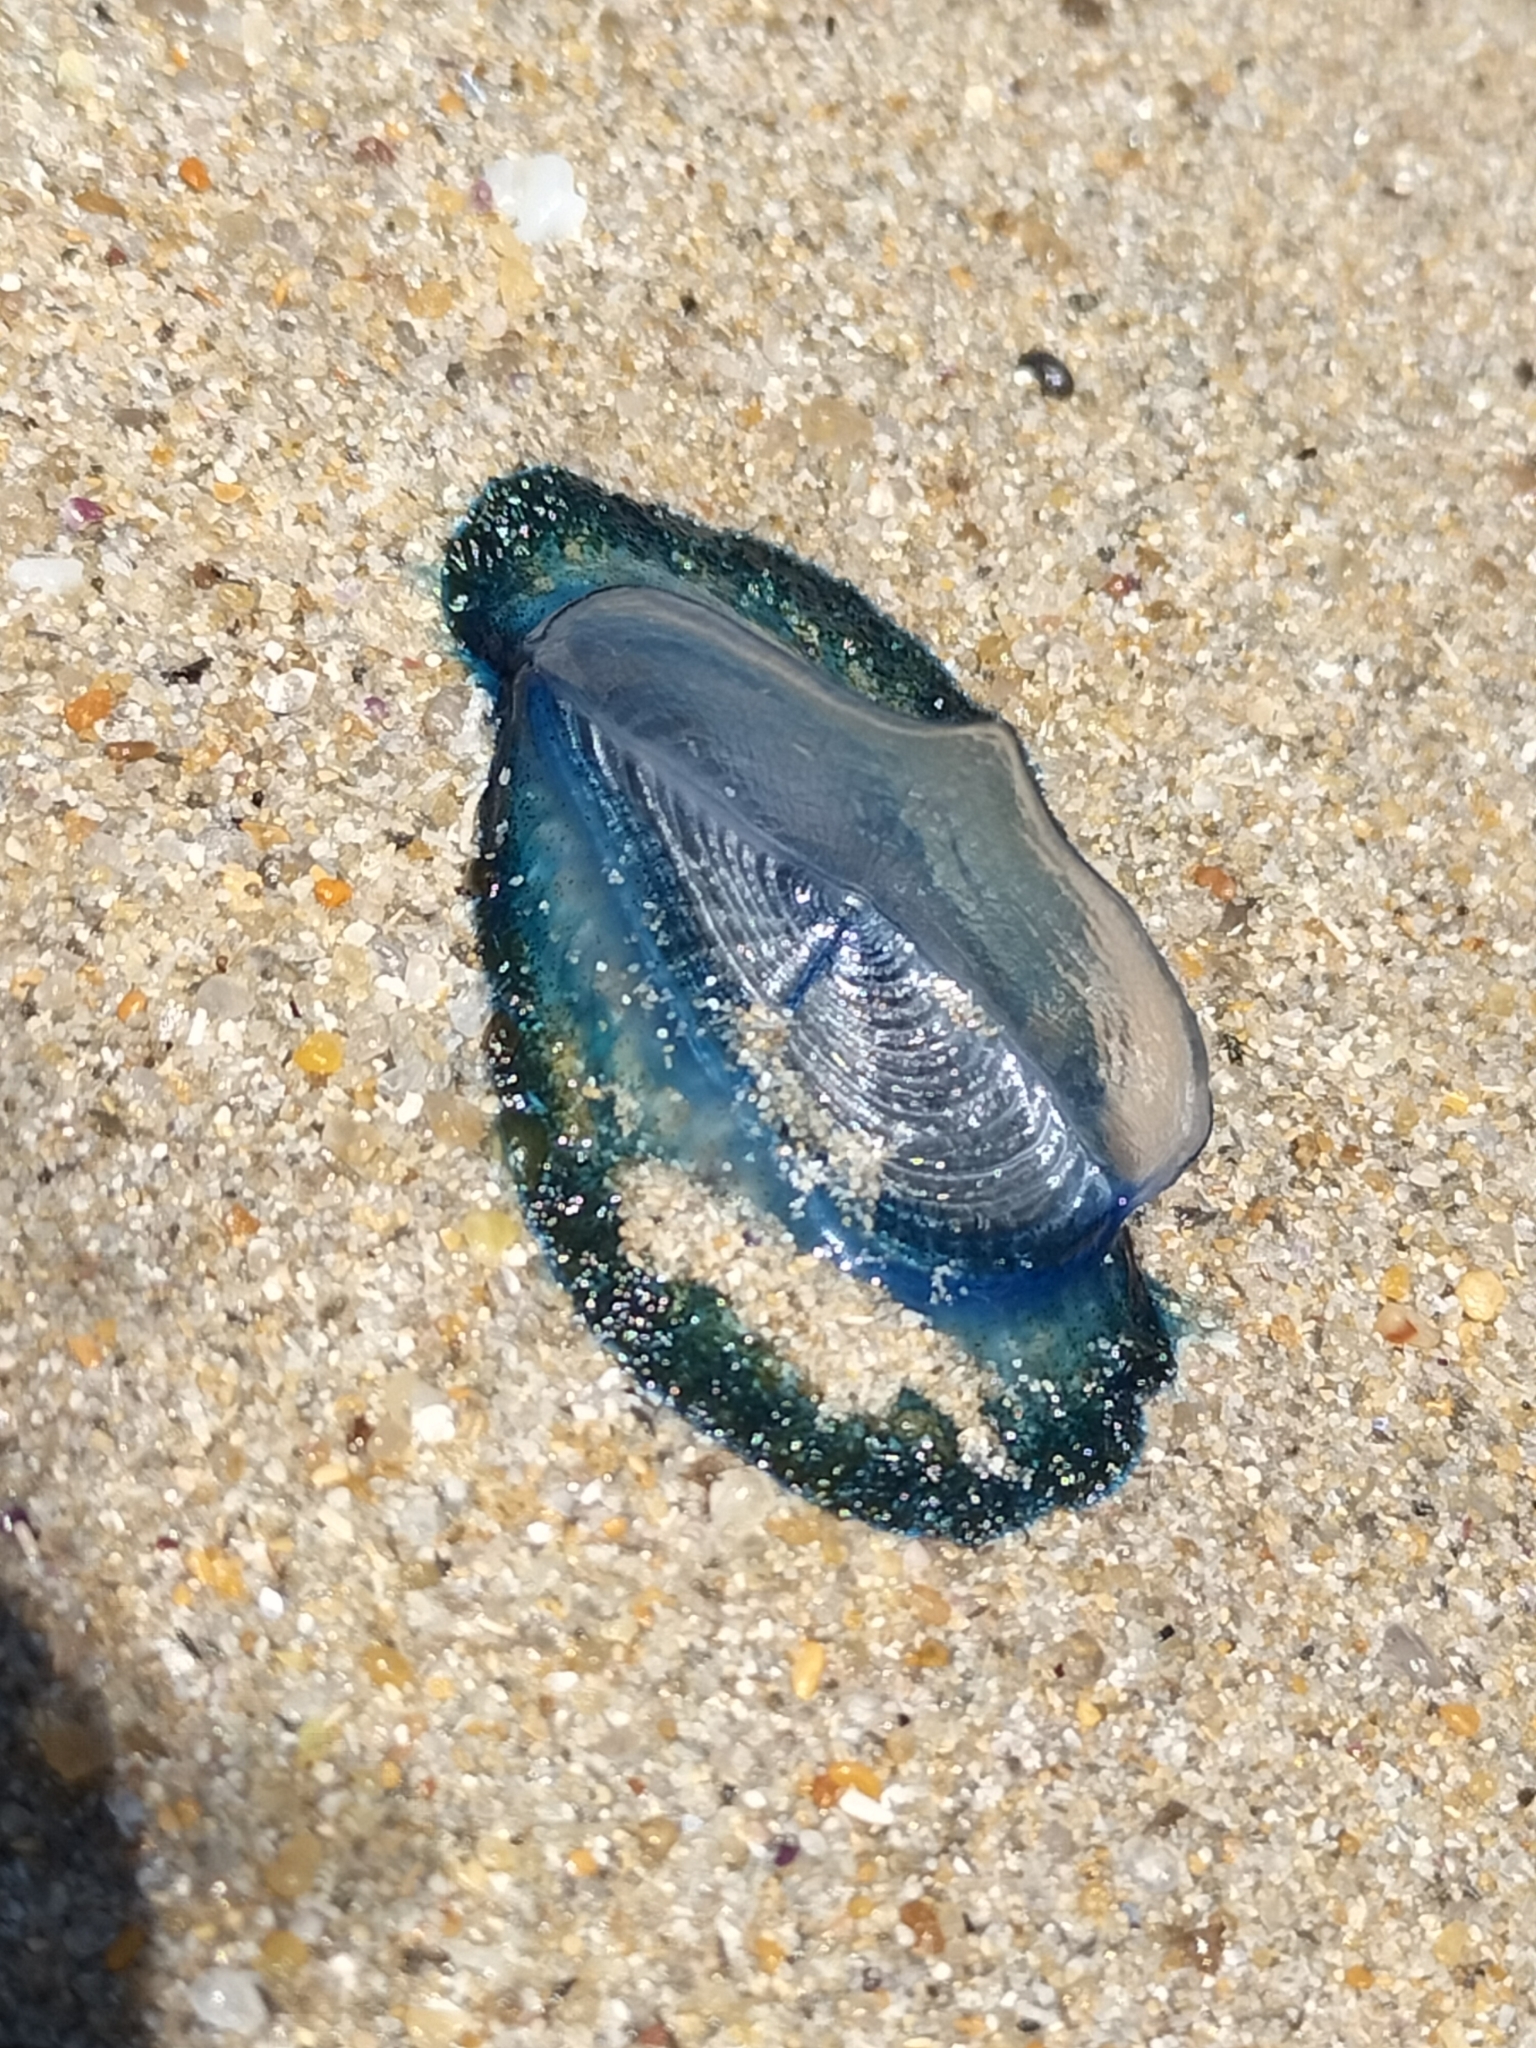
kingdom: Animalia
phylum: Cnidaria
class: Hydrozoa
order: Anthoathecata
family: Porpitidae
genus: Velella
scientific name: Velella velella
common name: By-the-wind-sailor
